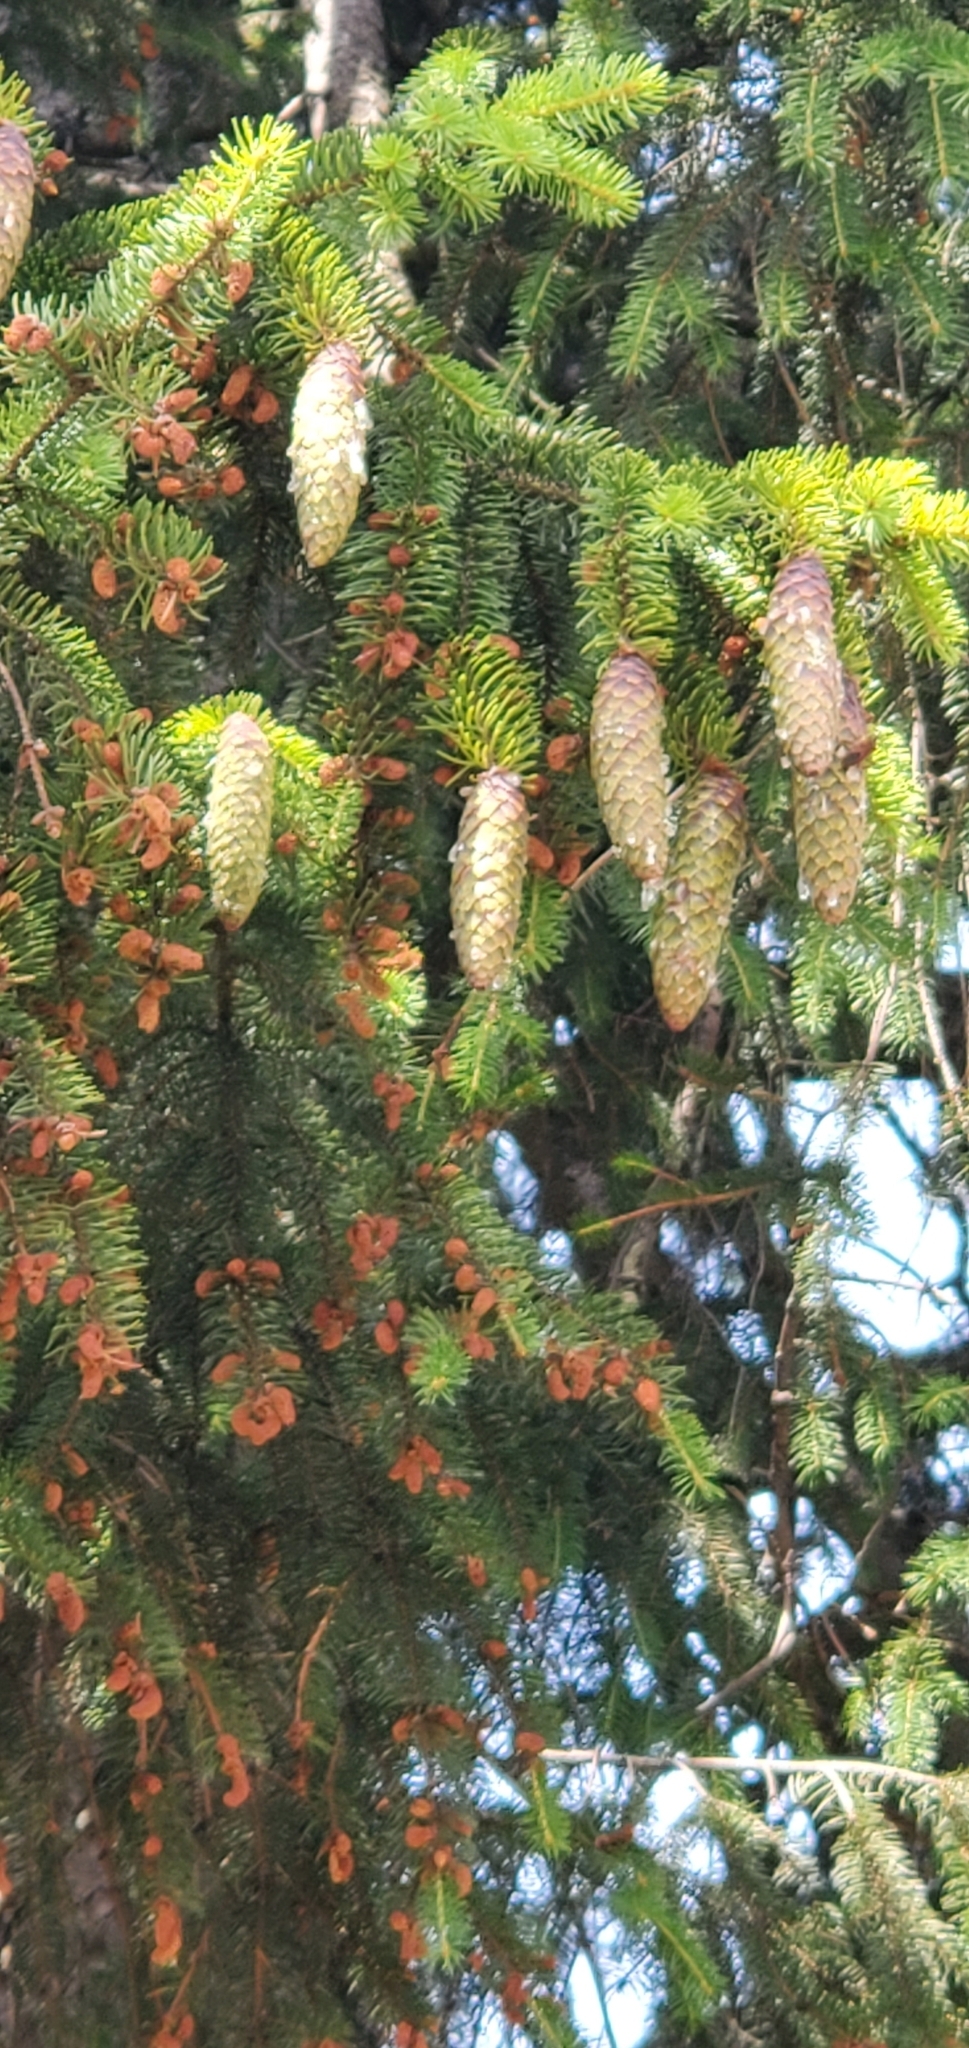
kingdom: Plantae
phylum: Tracheophyta
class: Pinopsida
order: Pinales
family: Pinaceae
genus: Picea
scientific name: Picea abies
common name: Norway spruce
